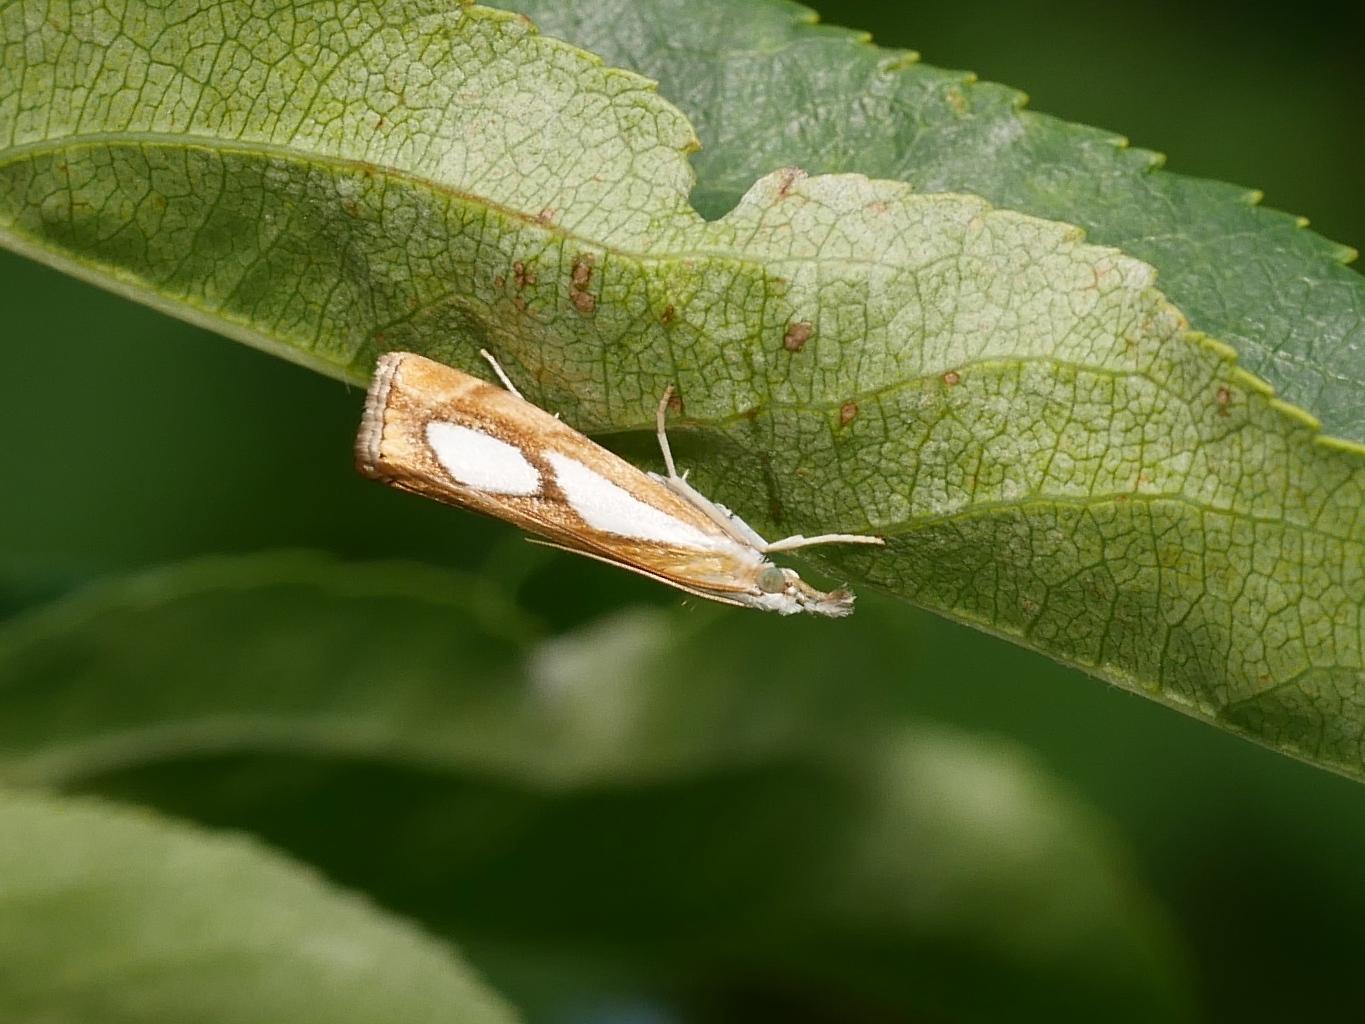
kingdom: Animalia
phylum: Arthropoda
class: Insecta
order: Lepidoptera
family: Crambidae
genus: Catoptria
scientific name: Catoptria pinella
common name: Pearl grass-veneer
